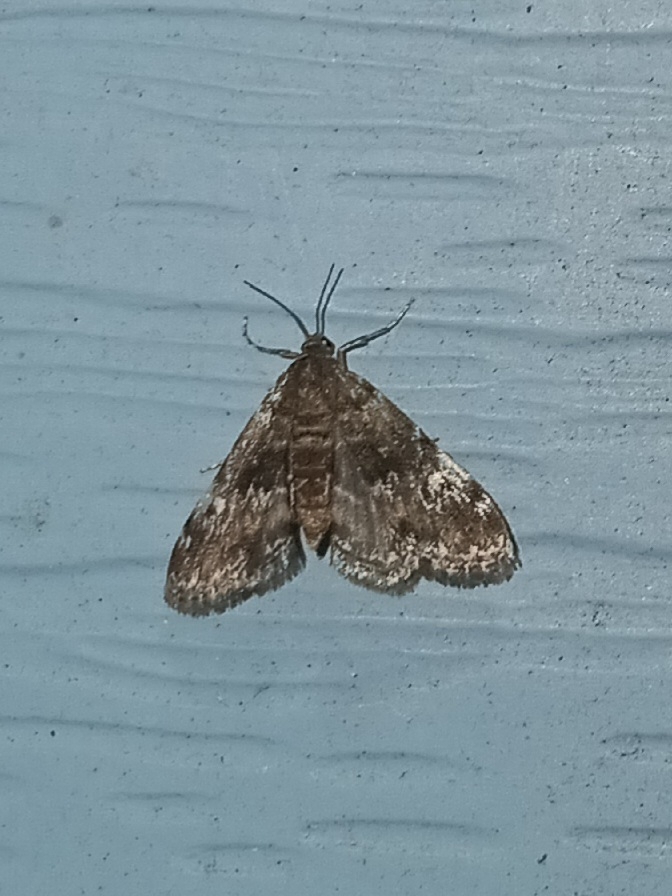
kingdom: Animalia
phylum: Arthropoda
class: Insecta
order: Lepidoptera
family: Crambidae
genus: Elophila
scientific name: Elophila obliteralis
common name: Waterlily leafcutter moth
